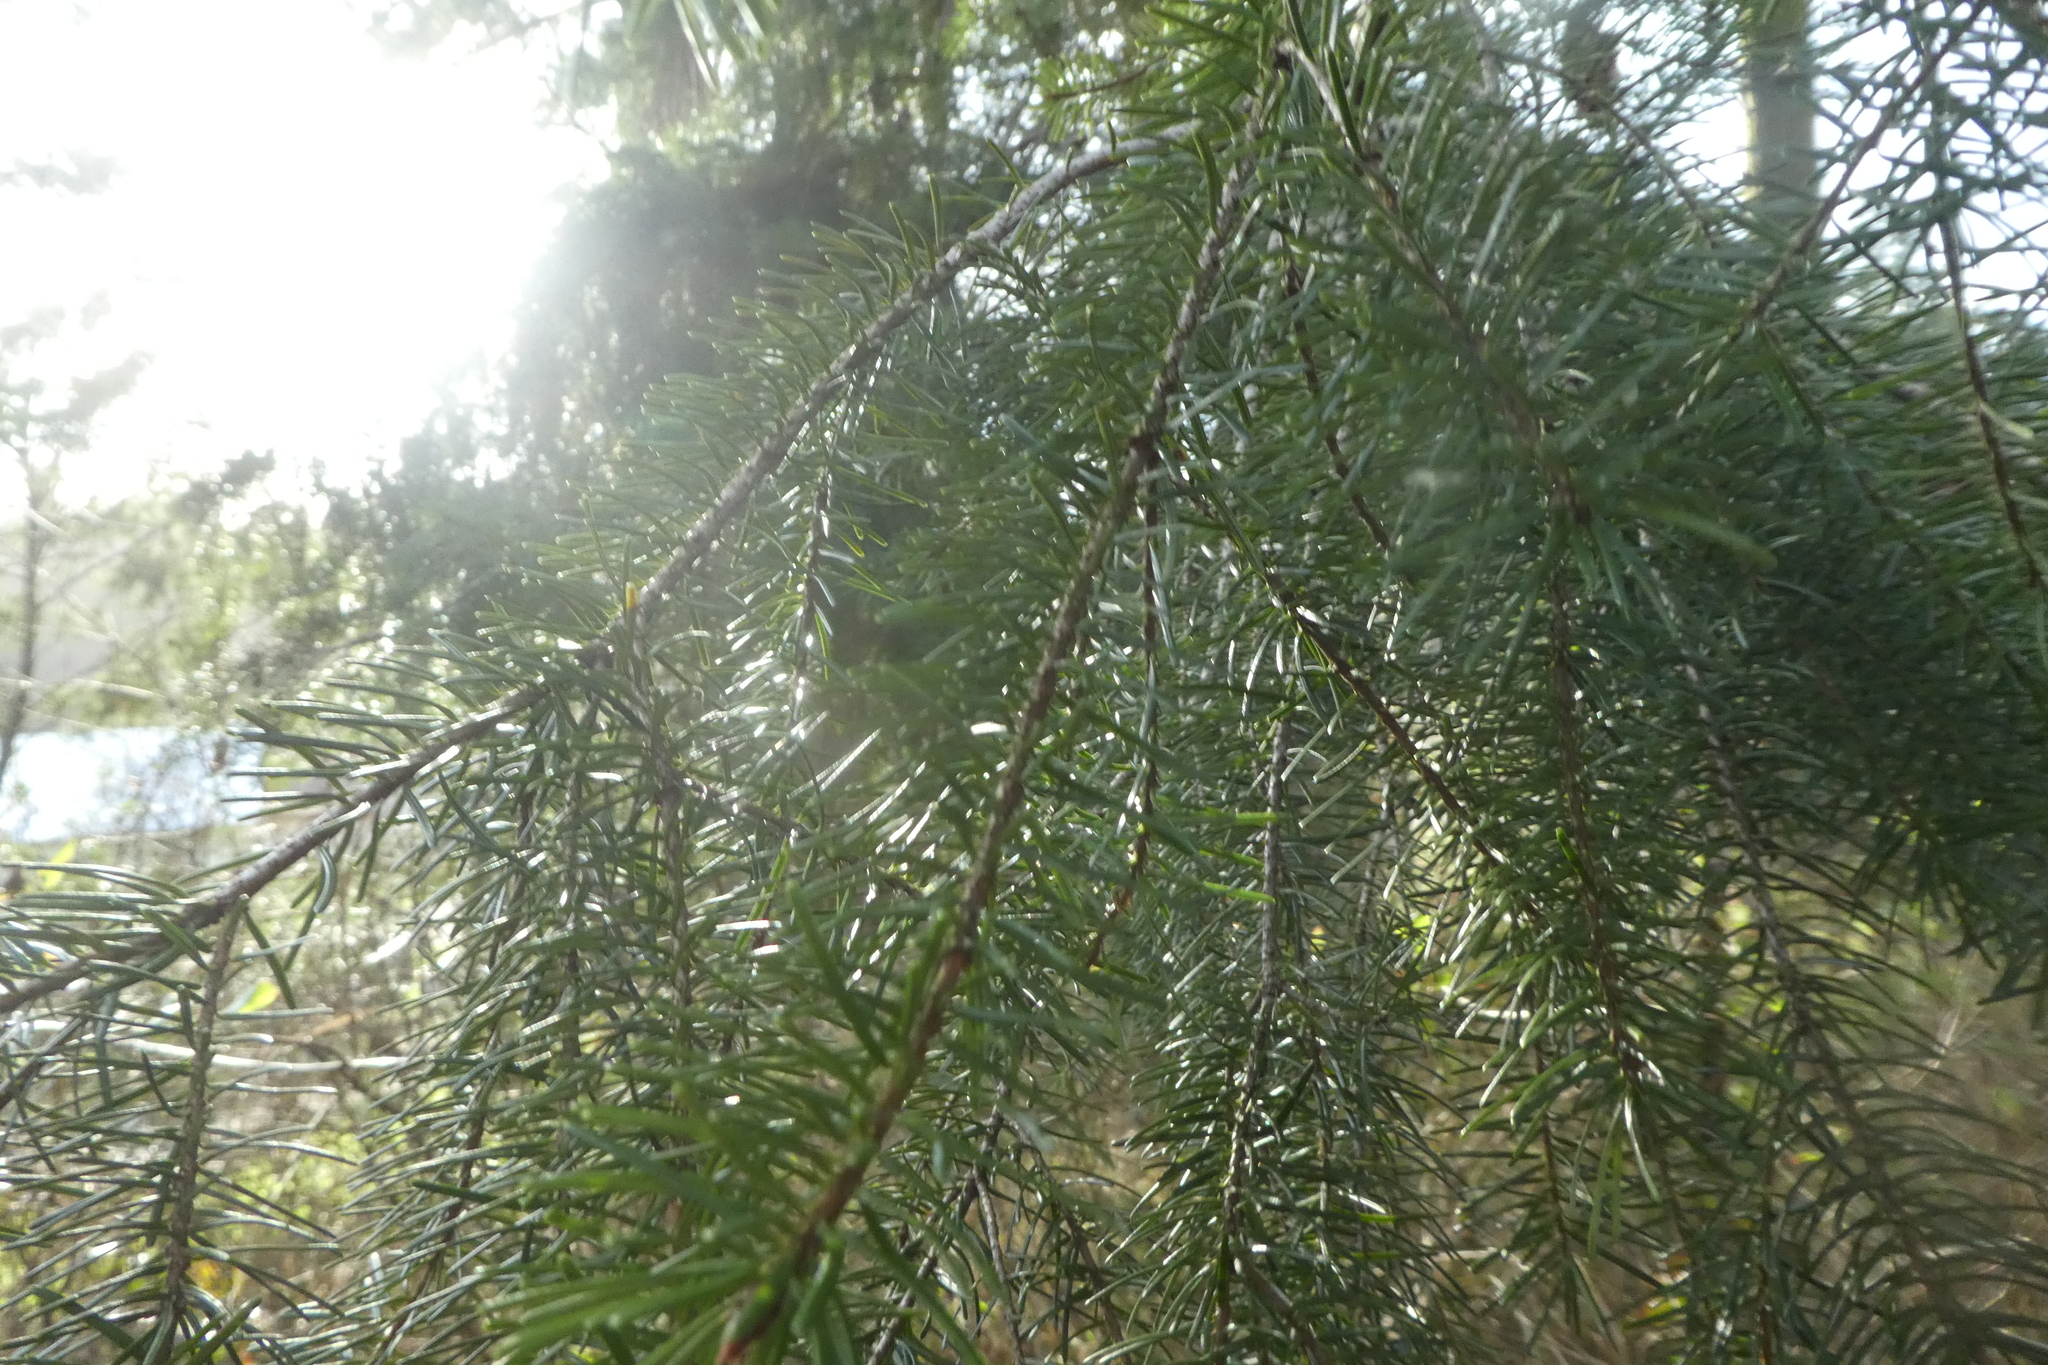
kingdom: Plantae
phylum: Tracheophyta
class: Pinopsida
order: Pinales
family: Pinaceae
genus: Pseudotsuga
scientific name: Pseudotsuga menziesii
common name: Douglas fir
